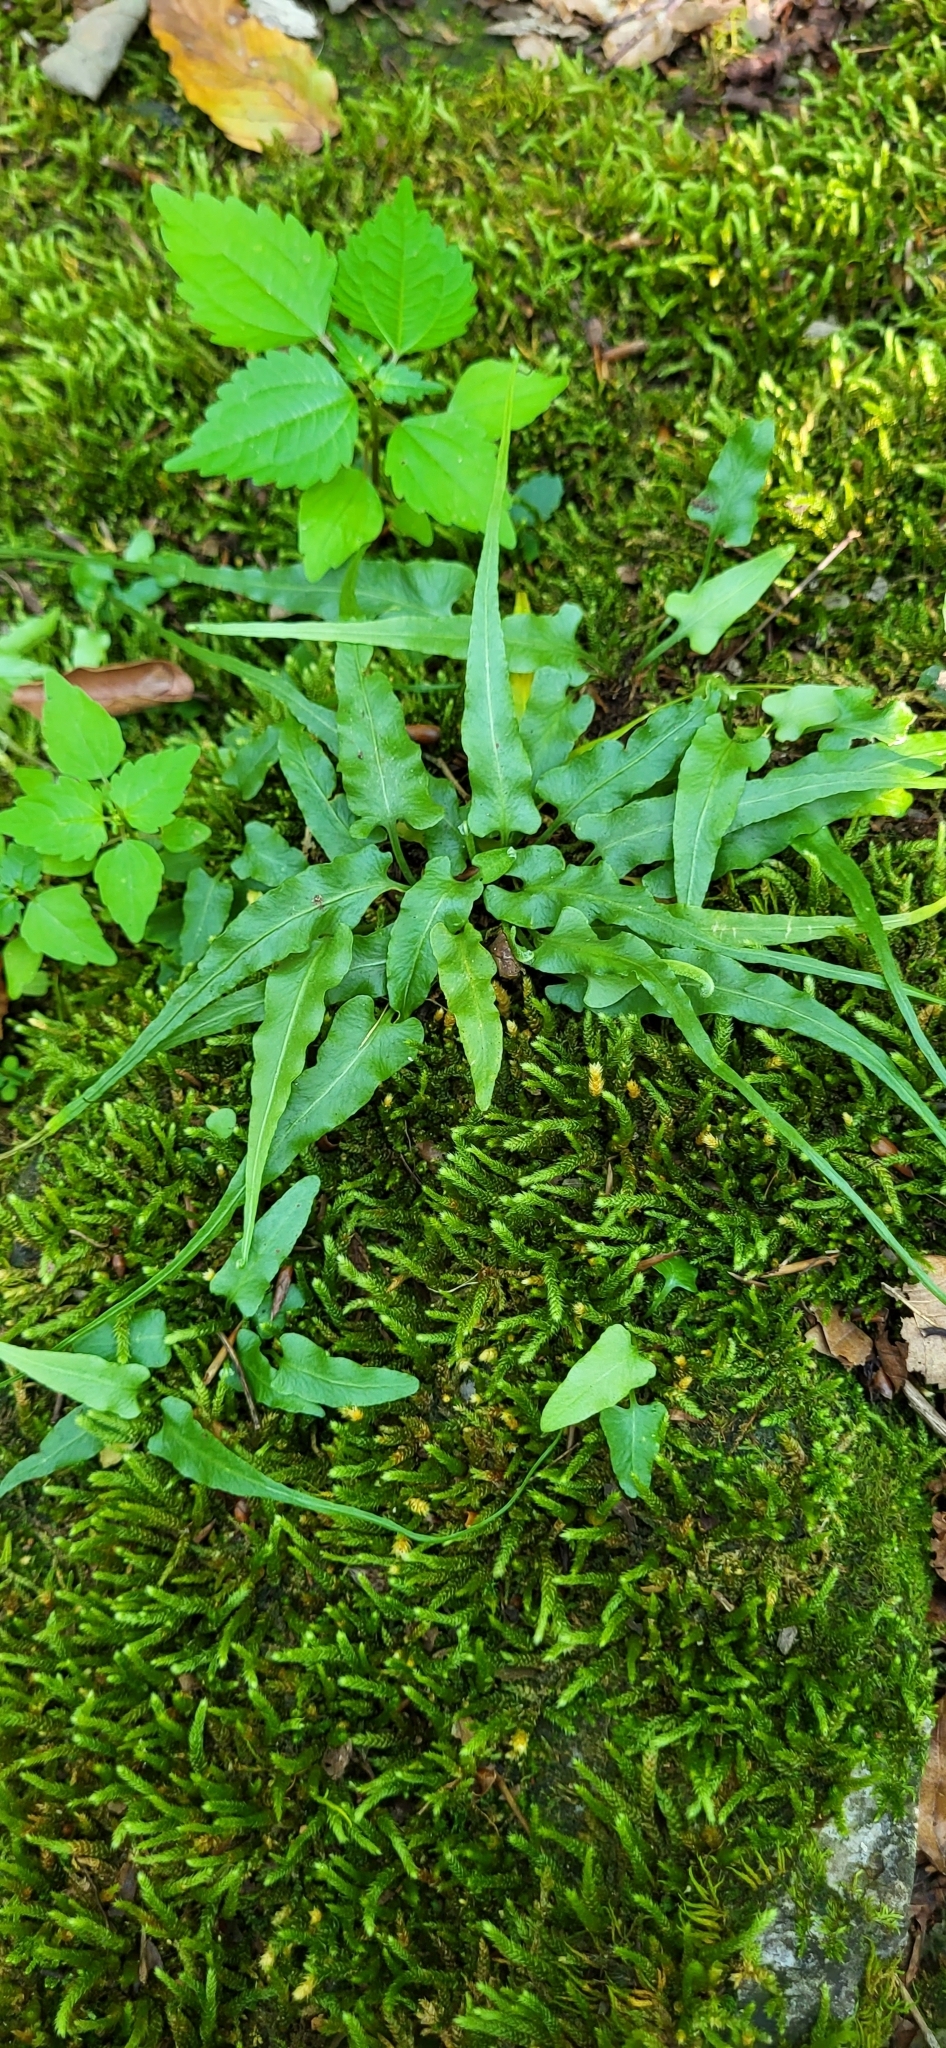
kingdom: Plantae
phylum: Tracheophyta
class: Polypodiopsida
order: Polypodiales
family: Aspleniaceae
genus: Asplenium
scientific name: Asplenium rhizophyllum
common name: Walking fern
